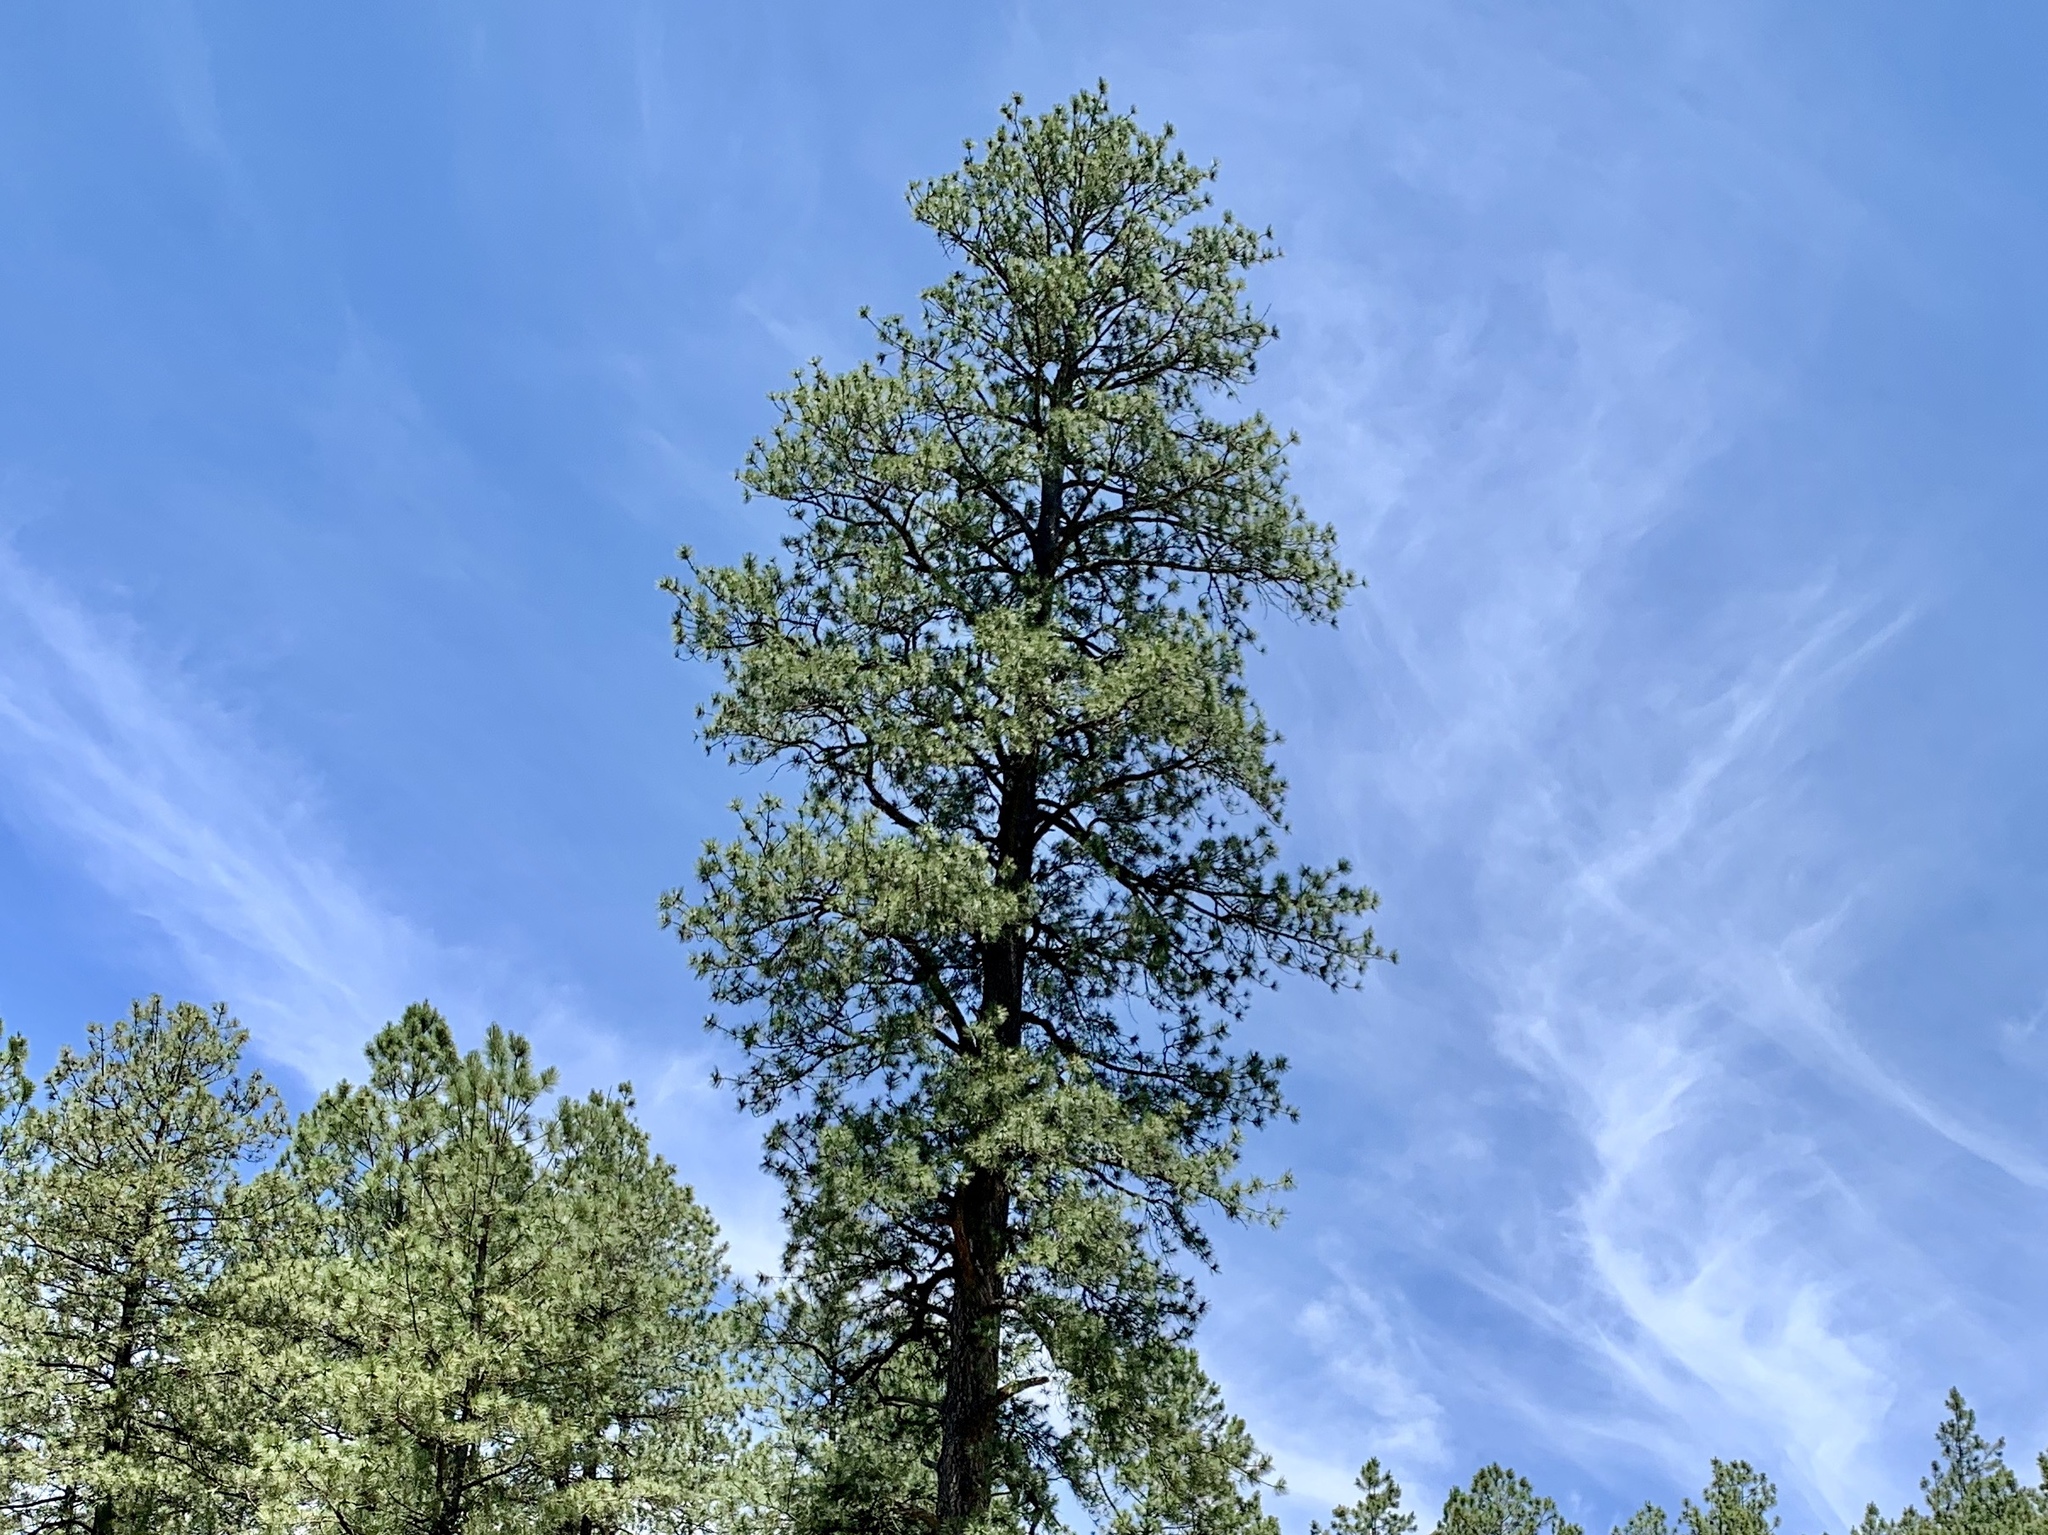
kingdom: Plantae
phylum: Tracheophyta
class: Pinopsida
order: Pinales
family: Pinaceae
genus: Pinus
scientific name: Pinus ponderosa
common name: Western yellow-pine
